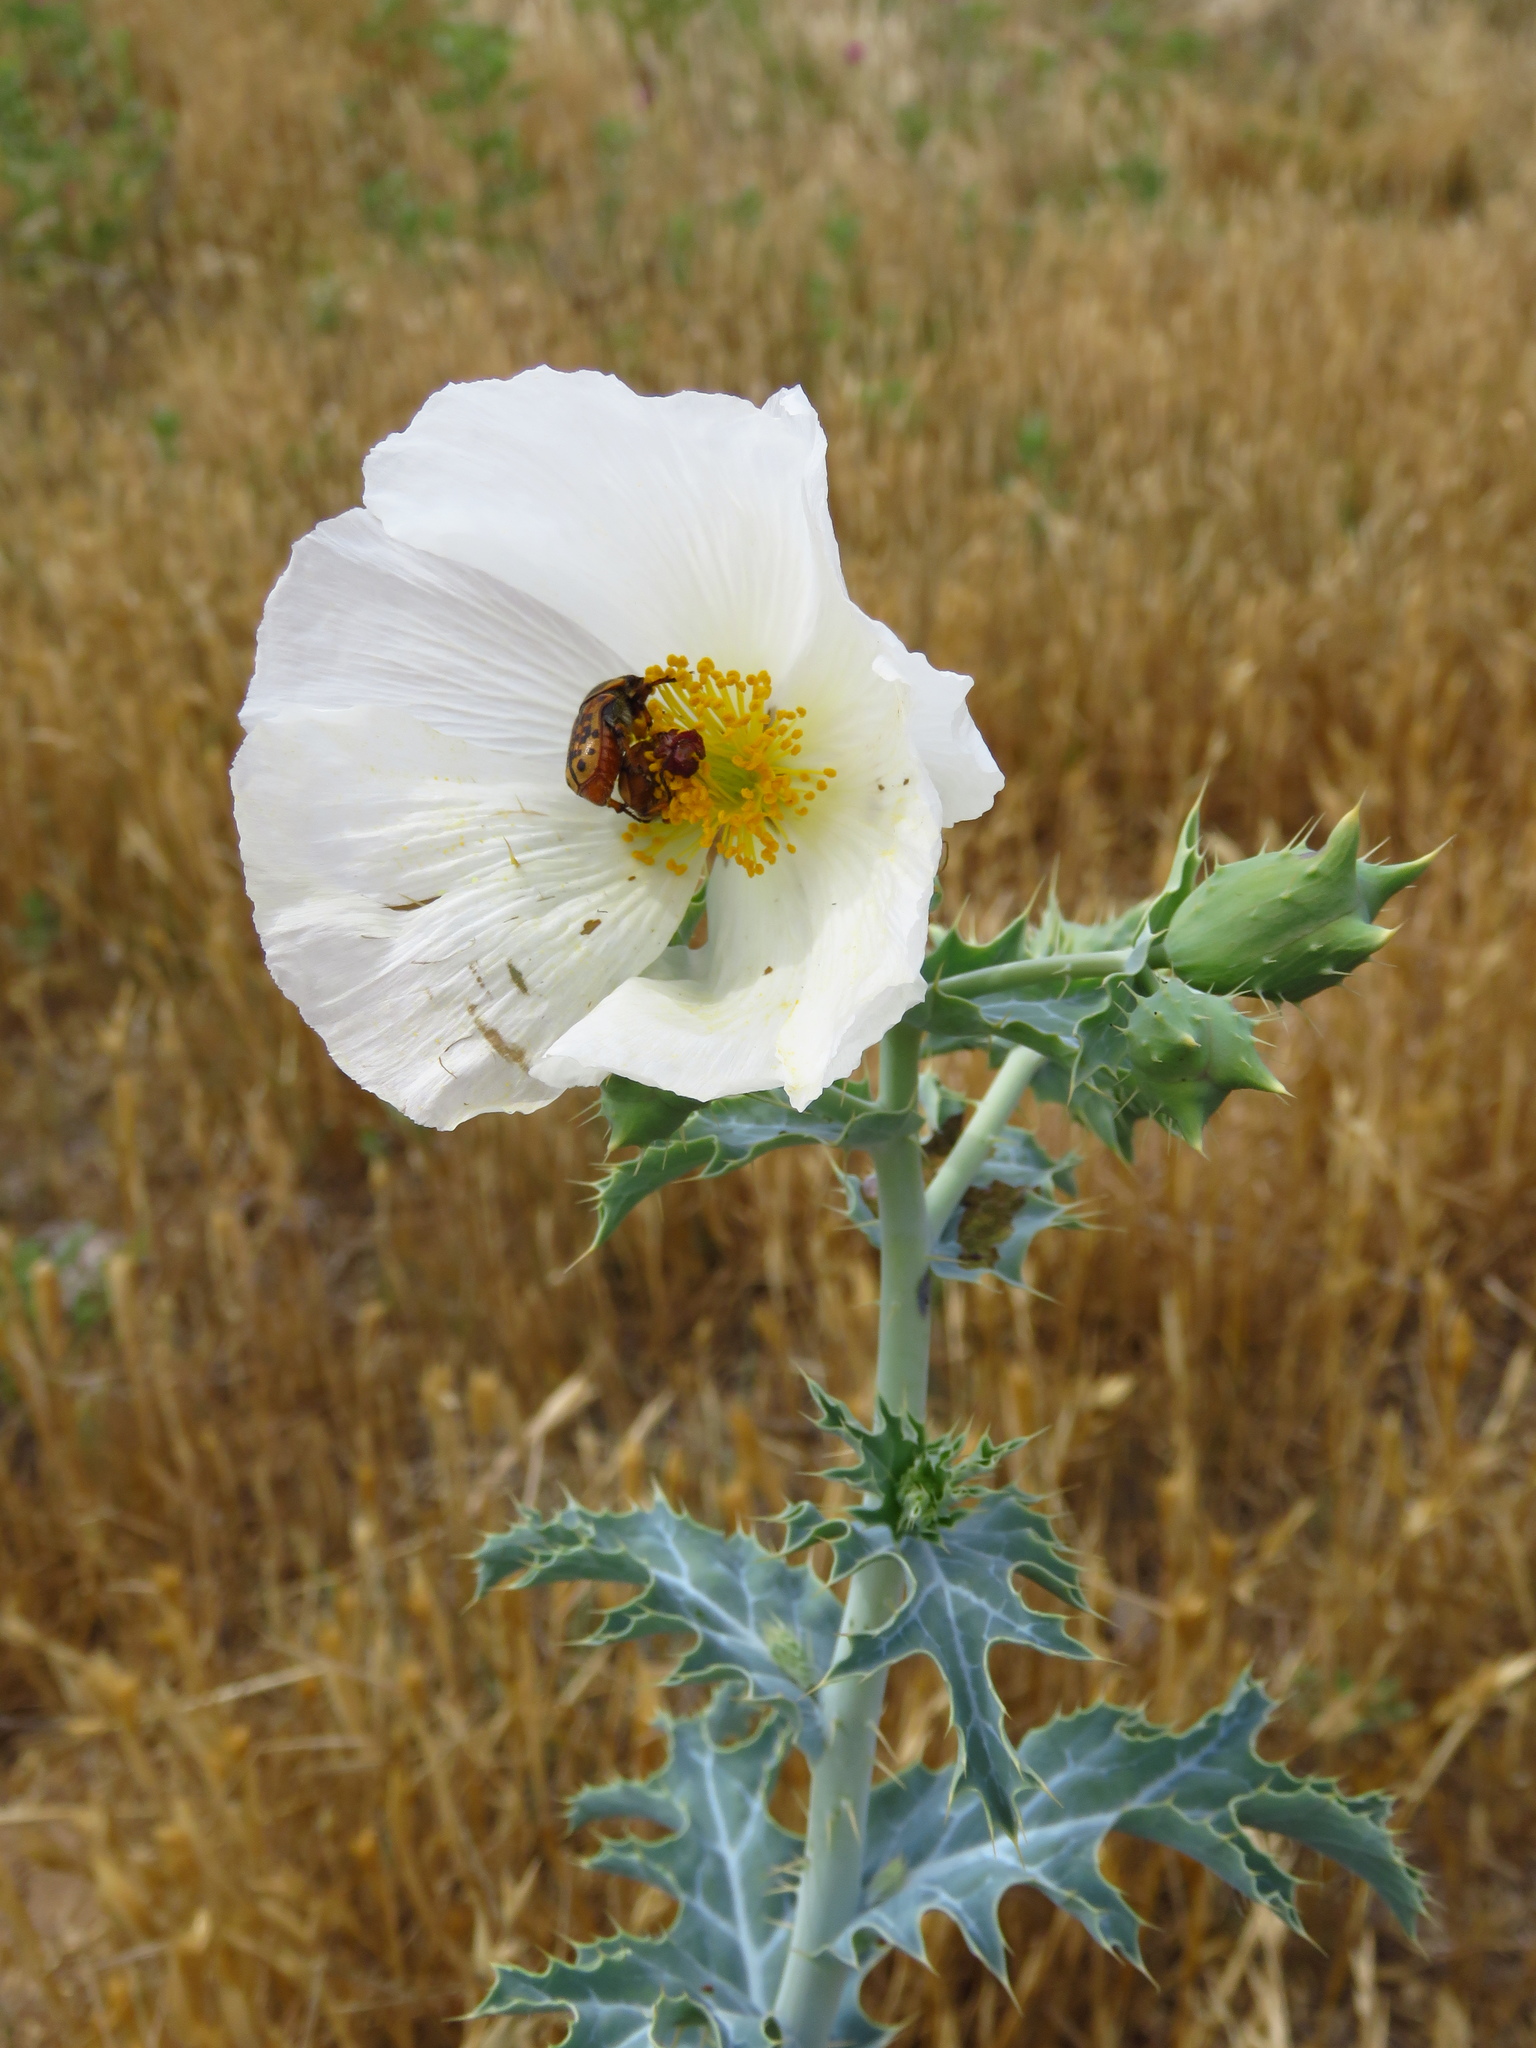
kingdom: Plantae
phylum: Tracheophyta
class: Magnoliopsida
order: Ranunculales
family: Papaveraceae
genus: Argemone
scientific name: Argemone polyanthemos
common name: Plains prickly-poppy
